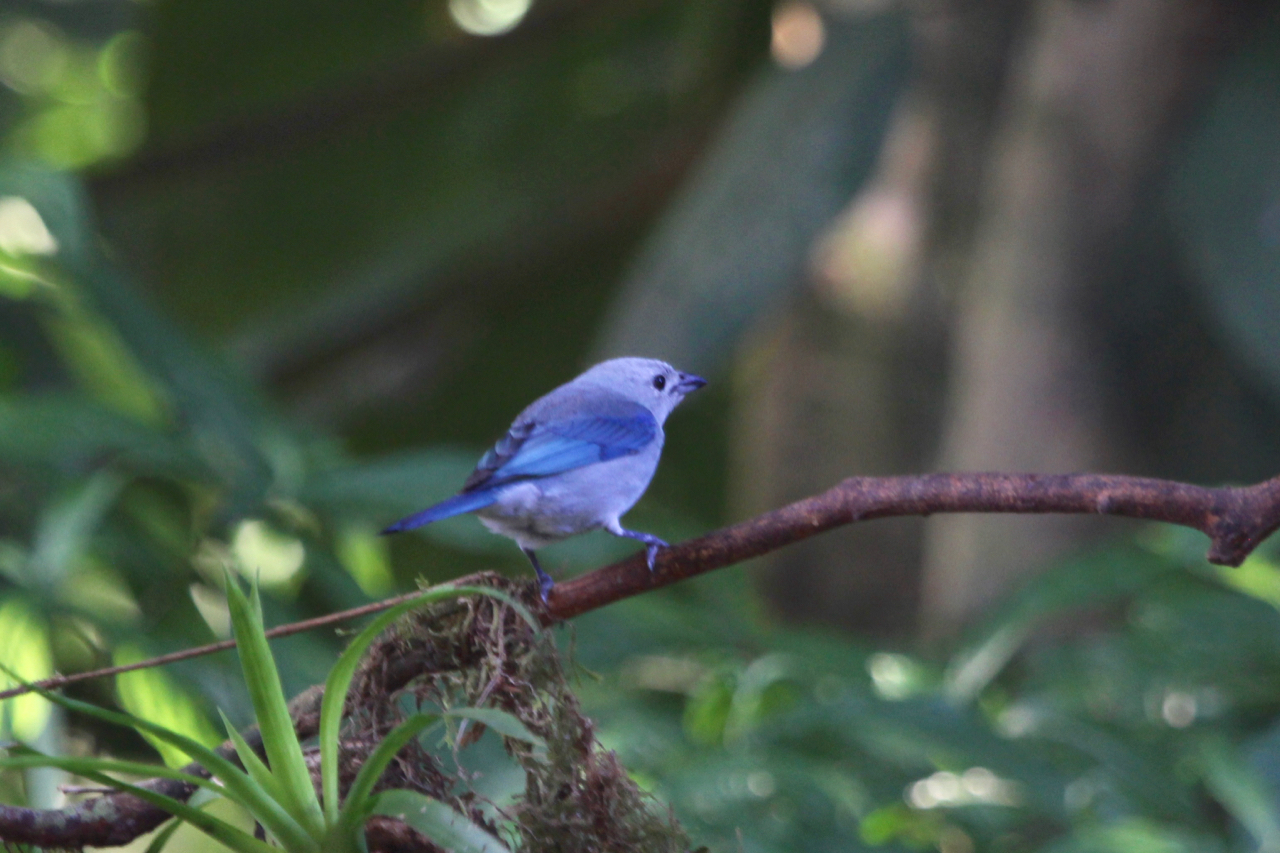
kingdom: Animalia
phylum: Chordata
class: Aves
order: Passeriformes
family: Thraupidae
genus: Thraupis
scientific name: Thraupis episcopus
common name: Blue-grey tanager
